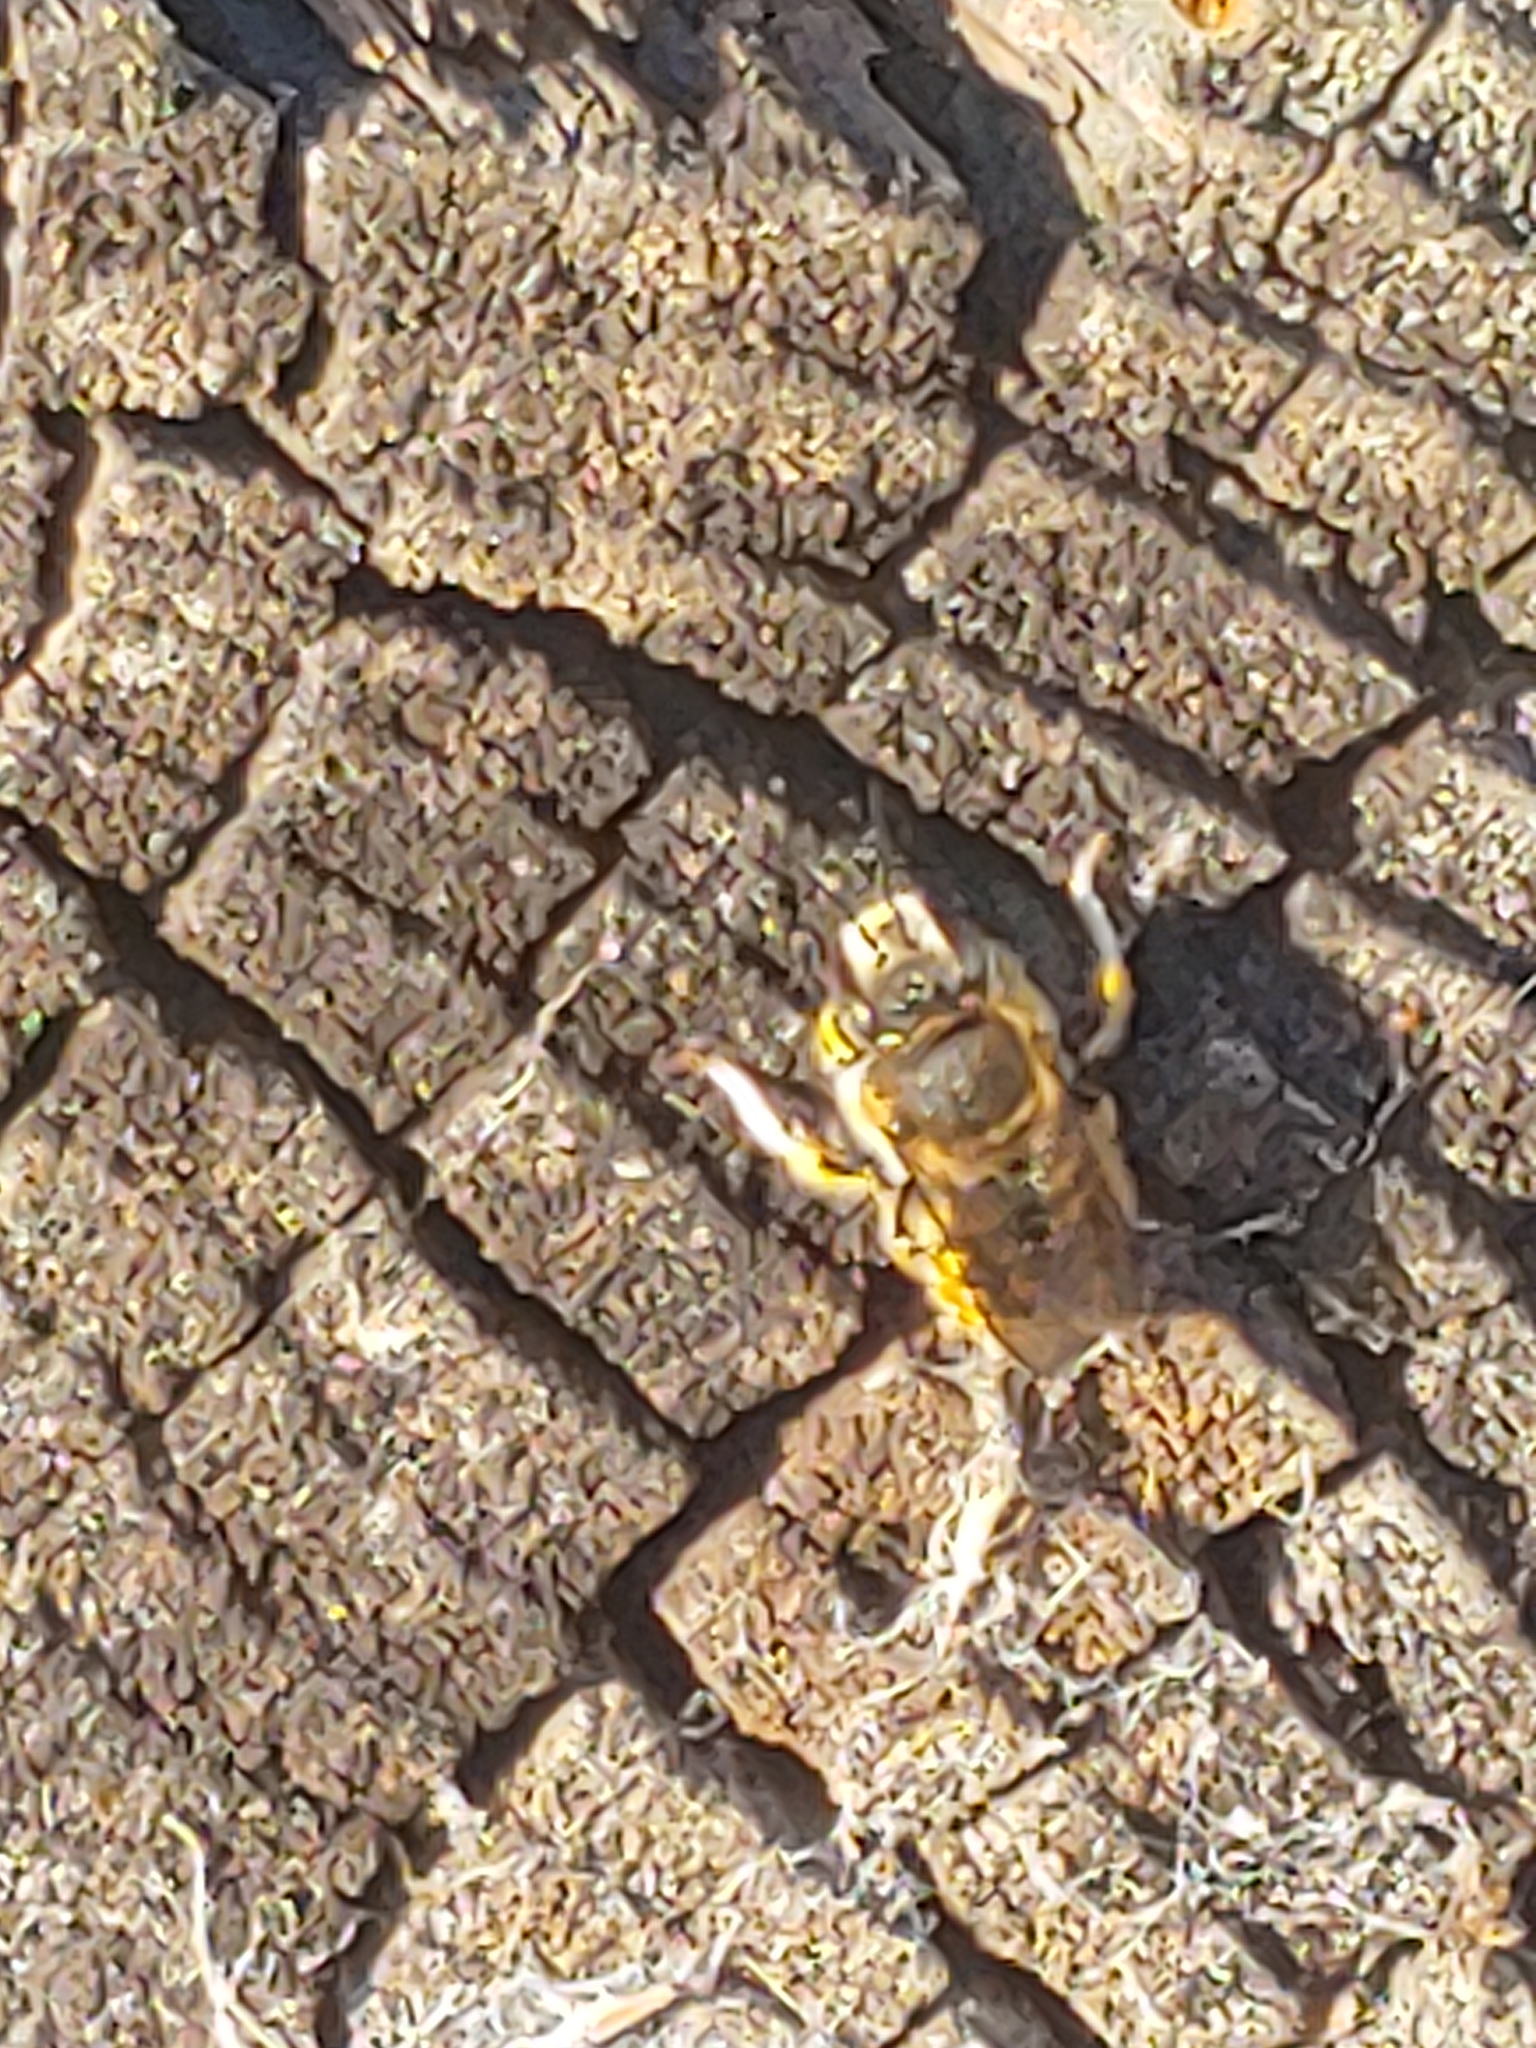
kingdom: Animalia
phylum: Arthropoda
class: Insecta
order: Hymenoptera
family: Megachilidae
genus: Anthidium
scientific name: Anthidium manicatum
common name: Wool carder bee
